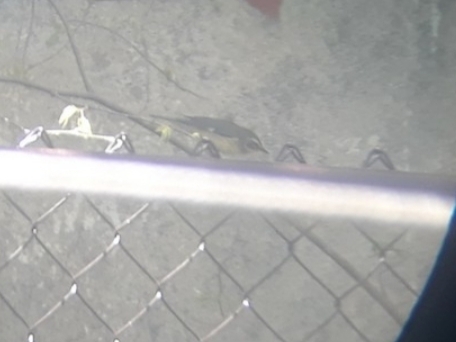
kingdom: Animalia
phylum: Chordata
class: Aves
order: Passeriformes
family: Parulidae
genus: Setophaga
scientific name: Setophaga caerulescens
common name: Black-throated blue warbler
